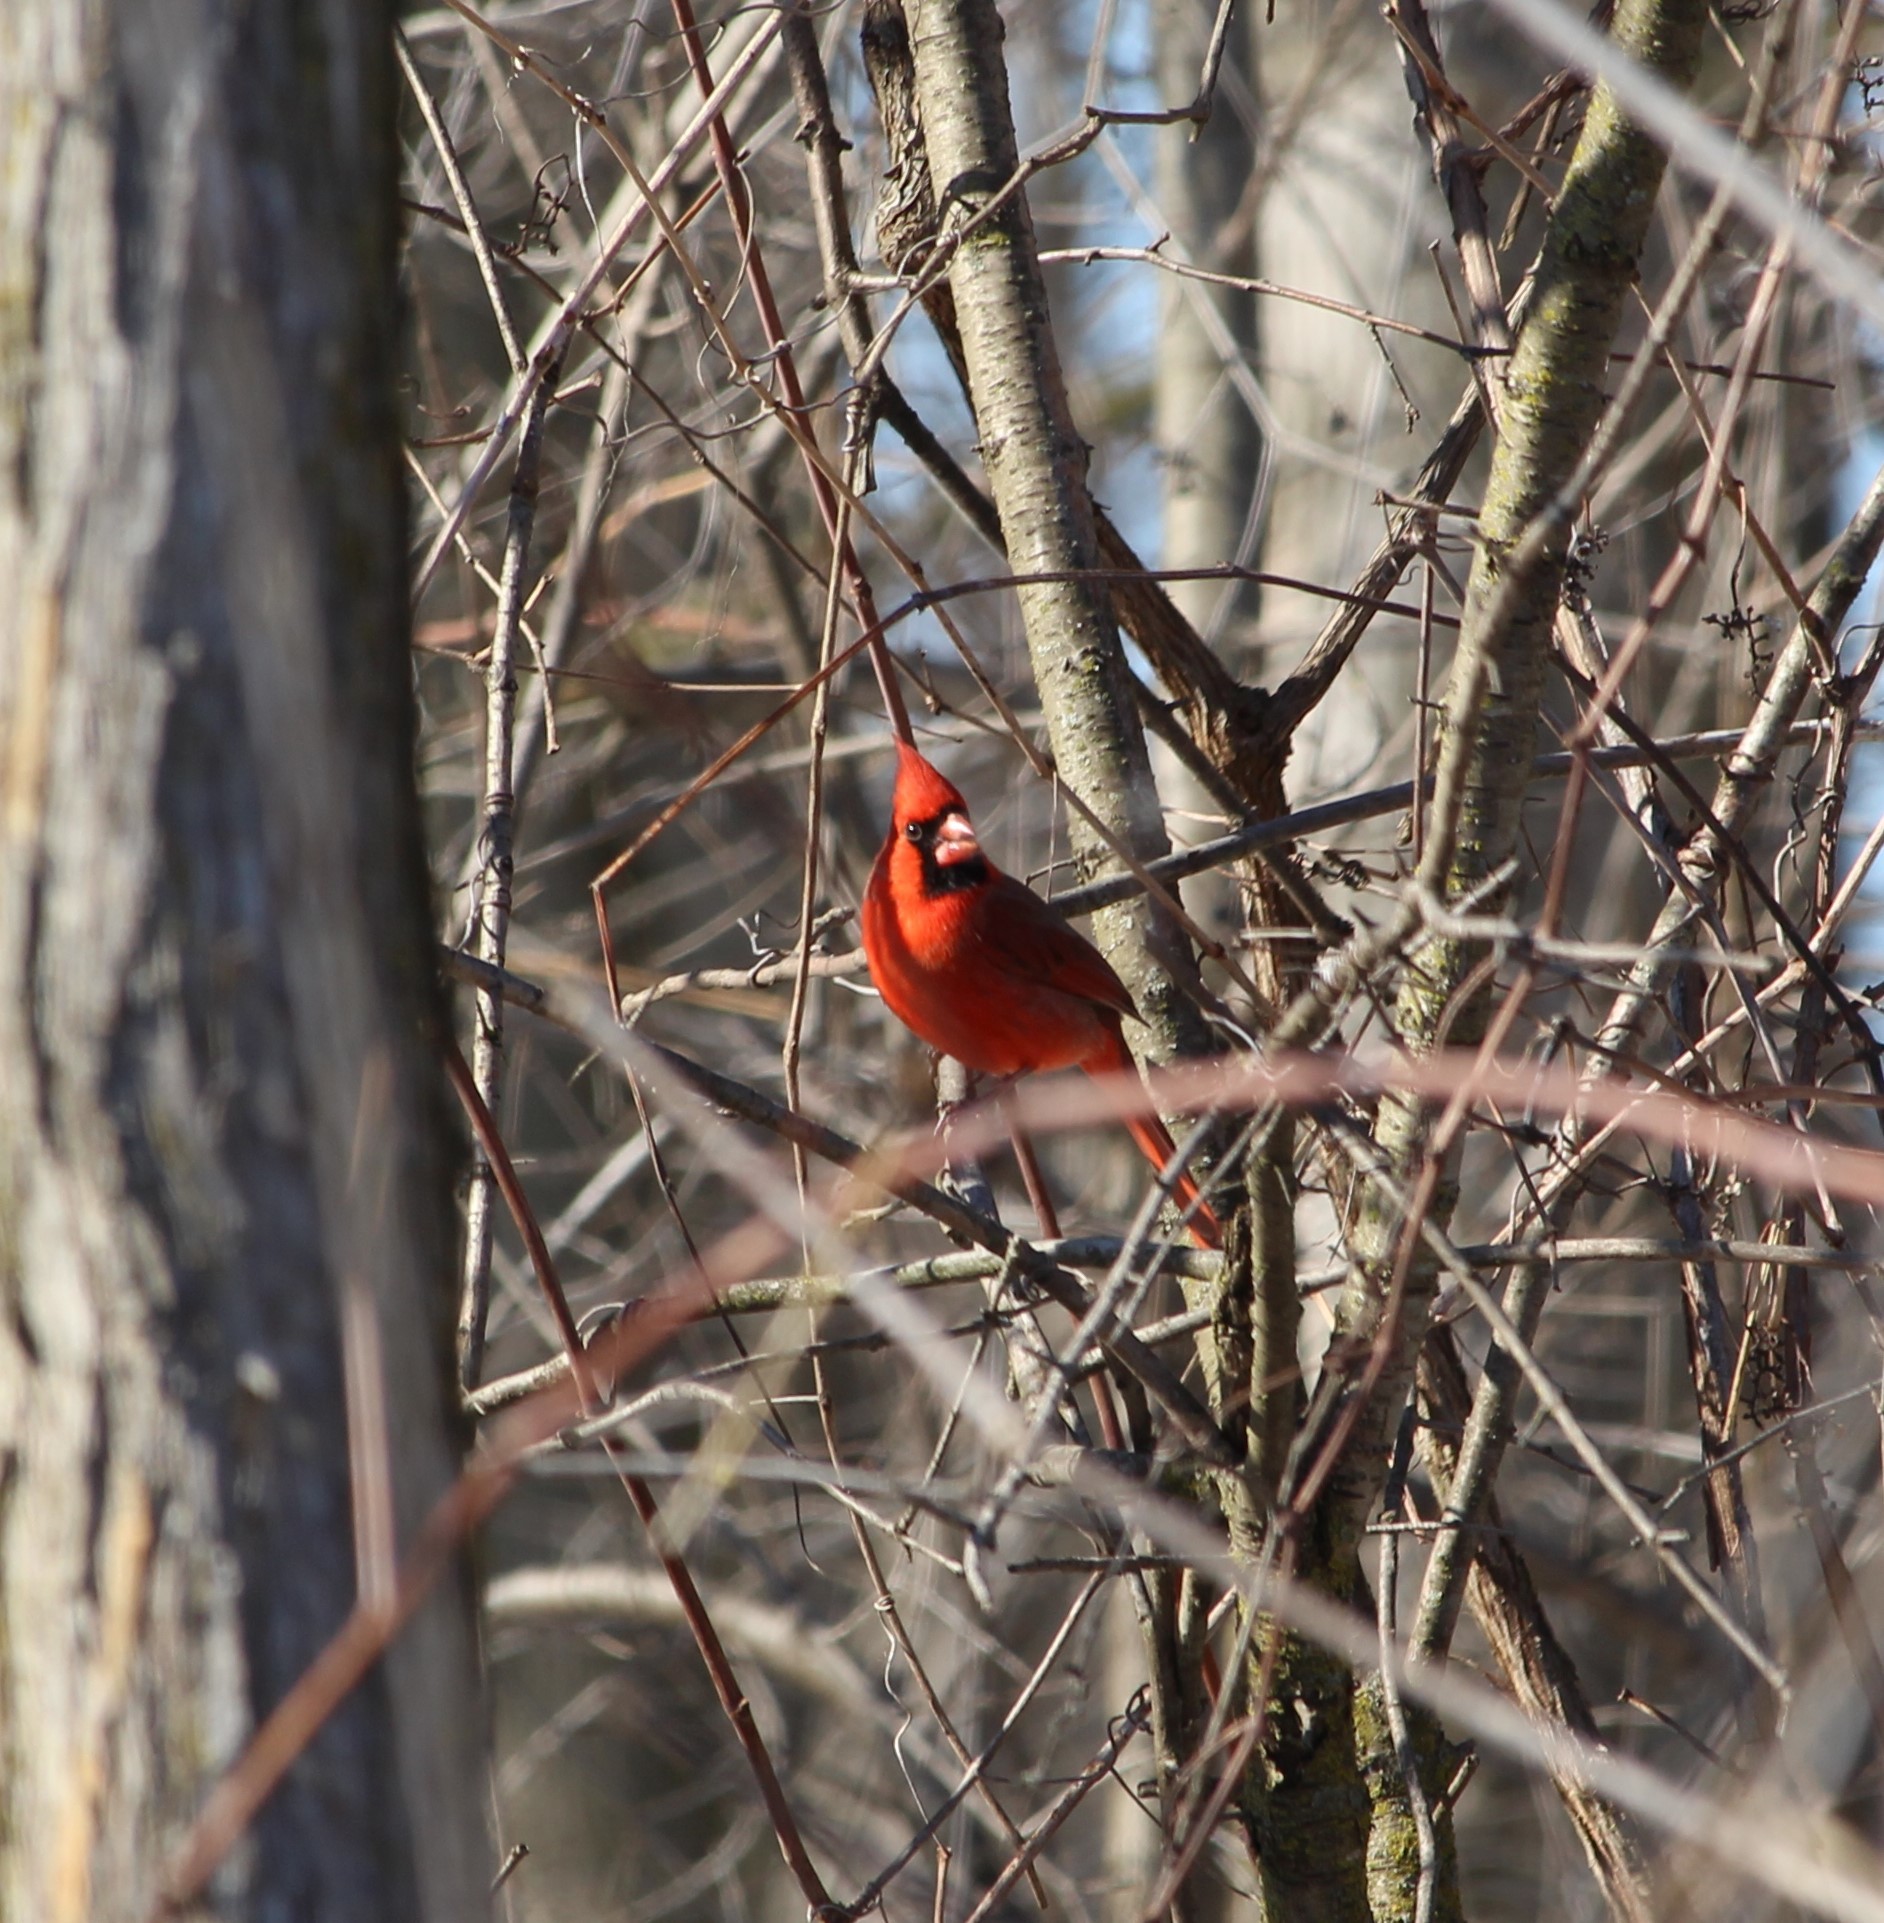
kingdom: Animalia
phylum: Chordata
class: Aves
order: Passeriformes
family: Cardinalidae
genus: Cardinalis
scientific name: Cardinalis cardinalis
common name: Northern cardinal
